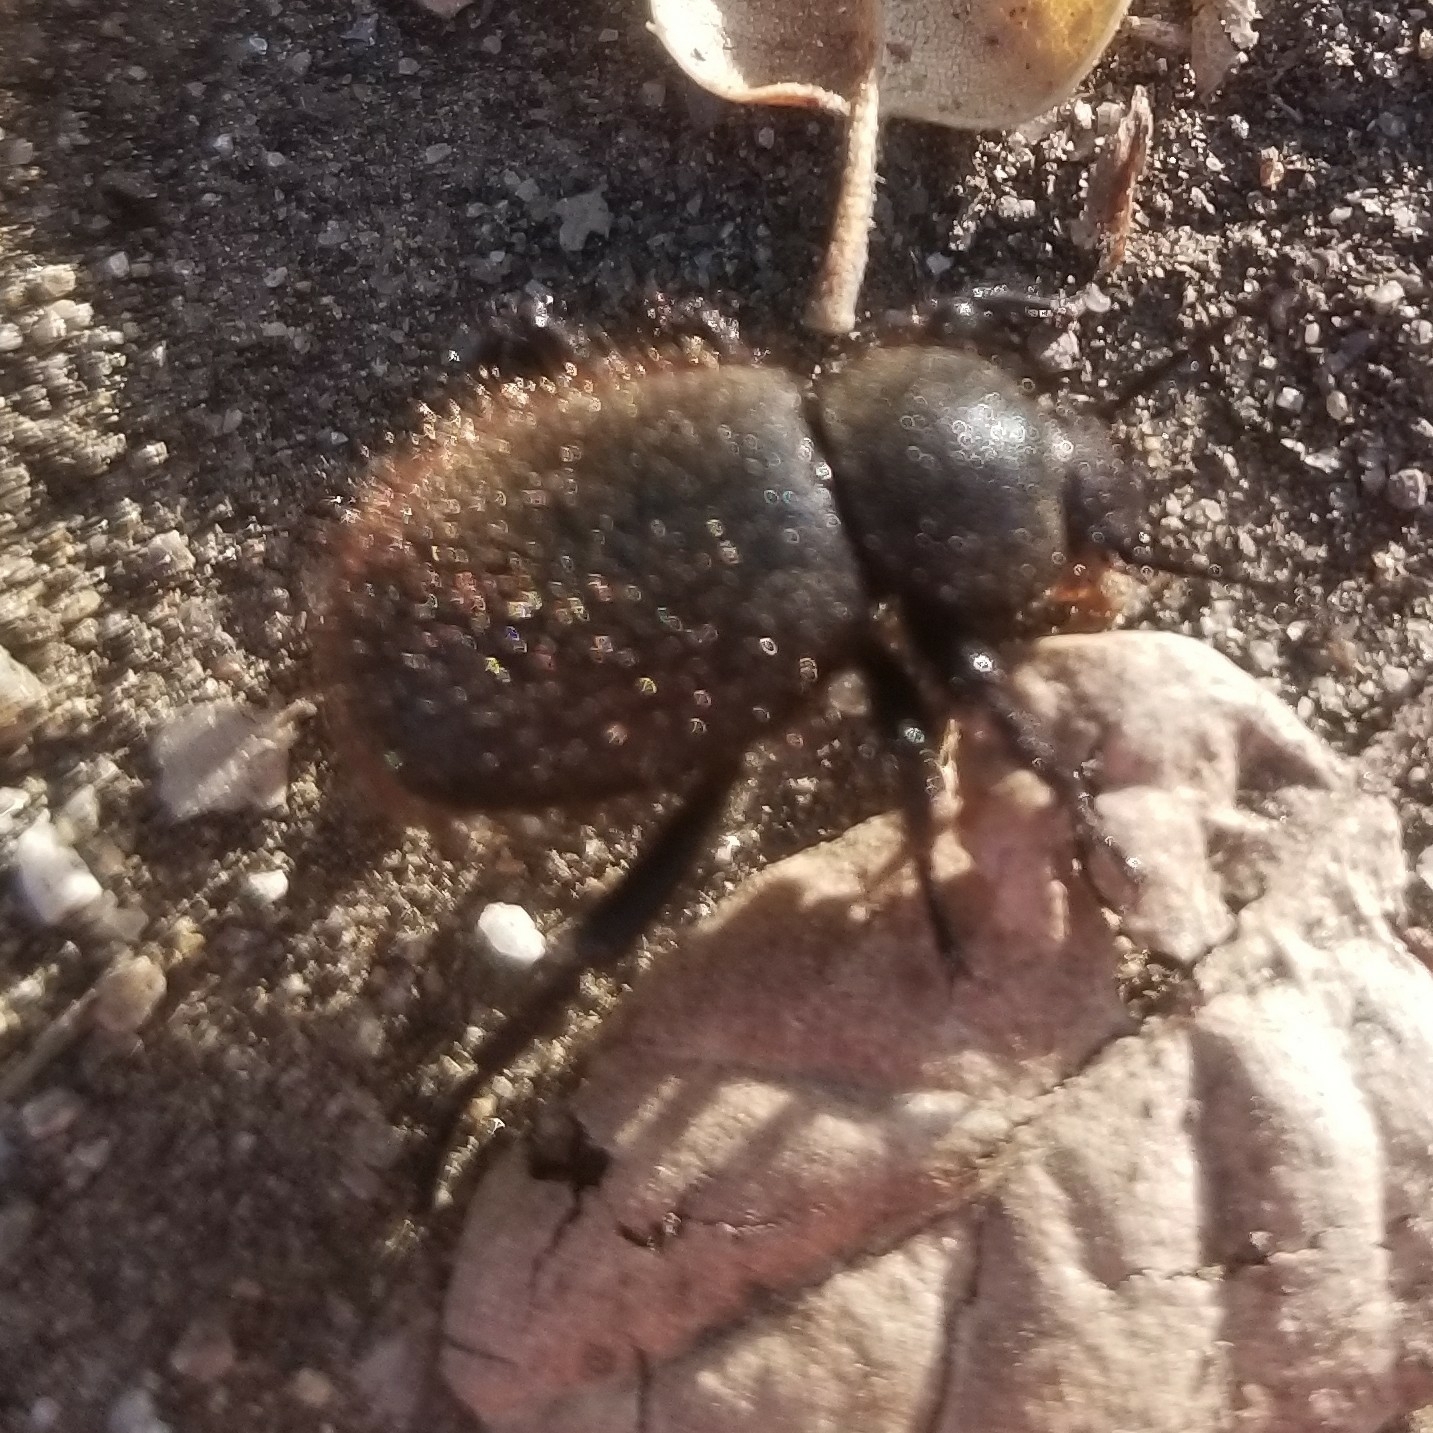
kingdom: Animalia
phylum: Arthropoda
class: Insecta
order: Coleoptera
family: Tenebrionidae
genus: Eleodes
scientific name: Eleodes osculans
